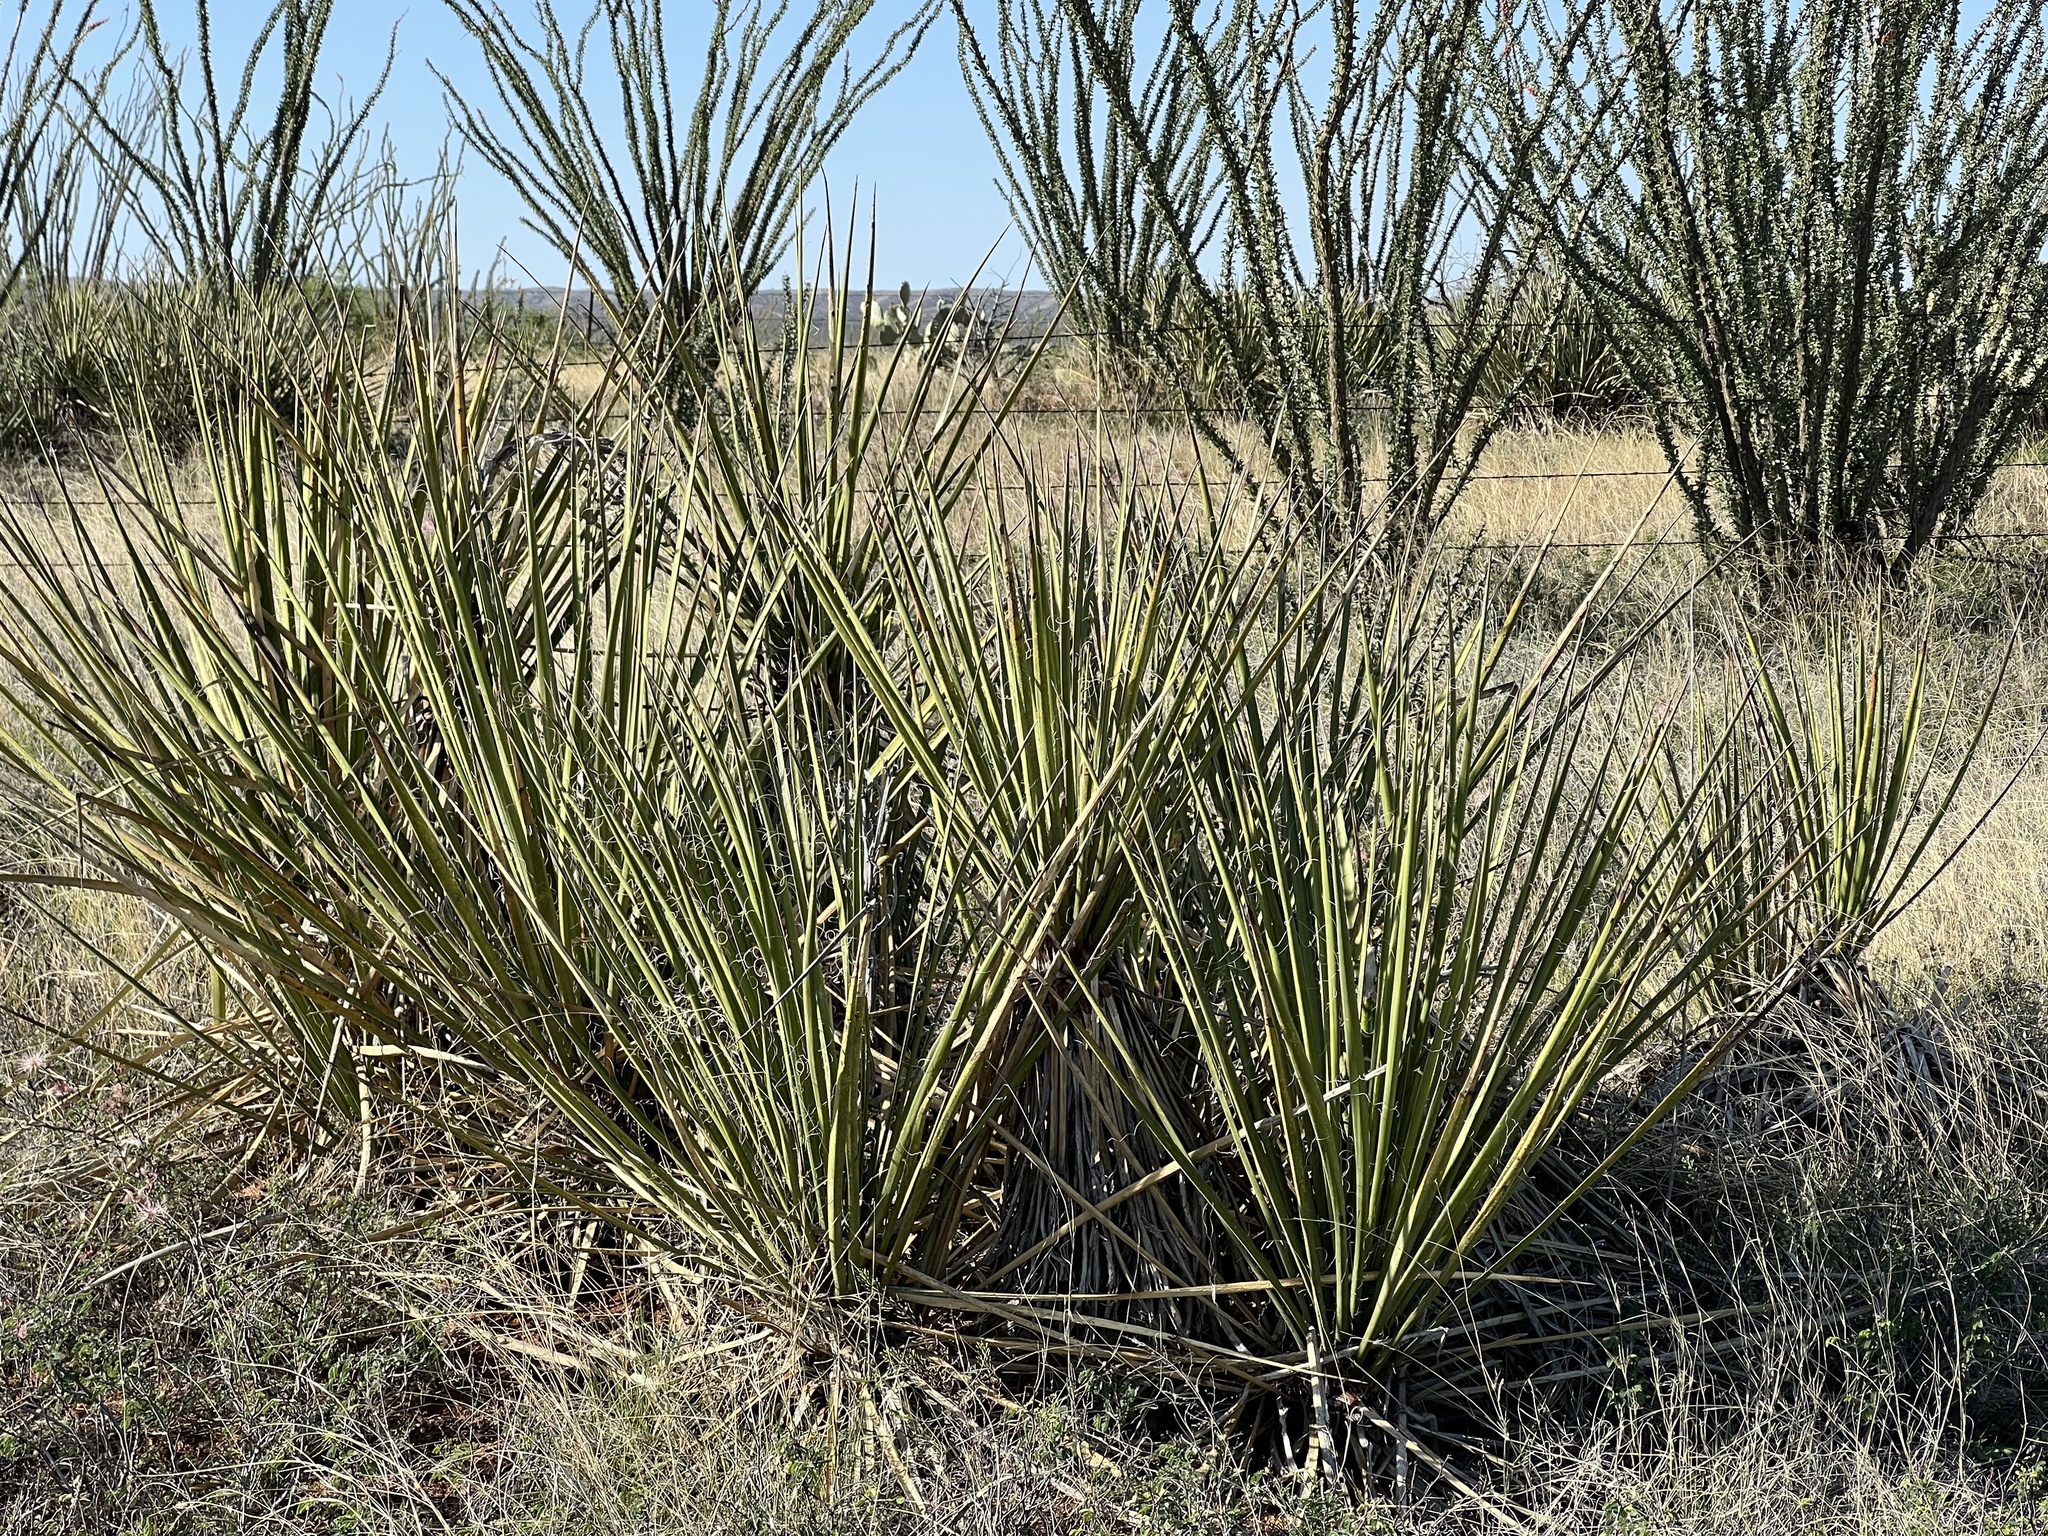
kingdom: Plantae
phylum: Tracheophyta
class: Liliopsida
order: Asparagales
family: Asparagaceae
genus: Yucca
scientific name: Yucca baccata
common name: Banana yucca
